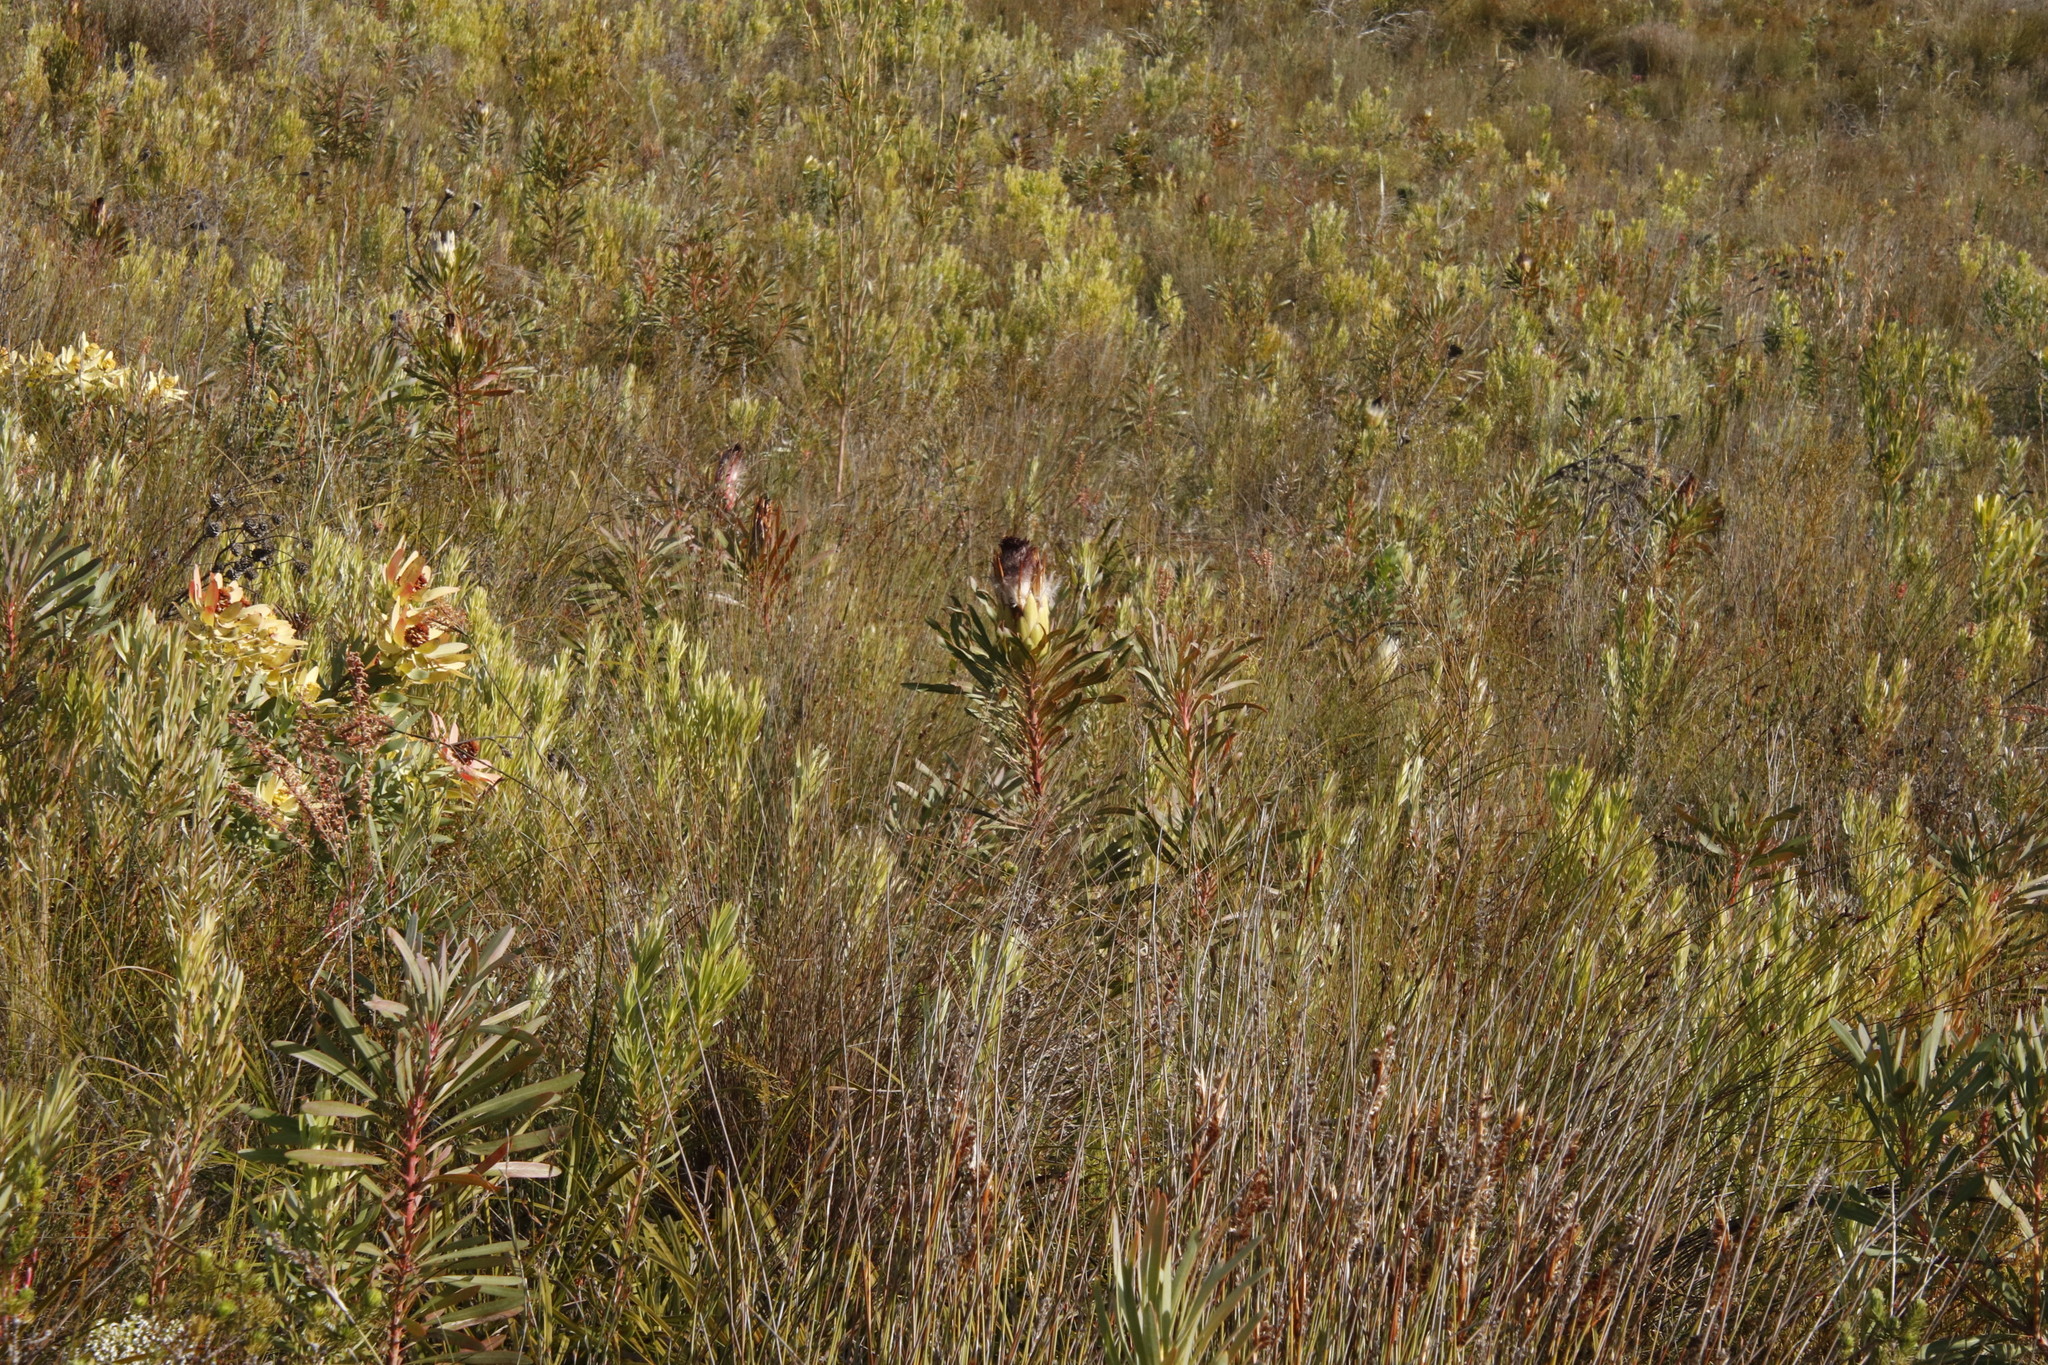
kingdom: Plantae
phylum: Tracheophyta
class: Magnoliopsida
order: Proteales
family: Proteaceae
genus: Protea
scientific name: Protea longifolia
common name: Long-leaf sugarbush
